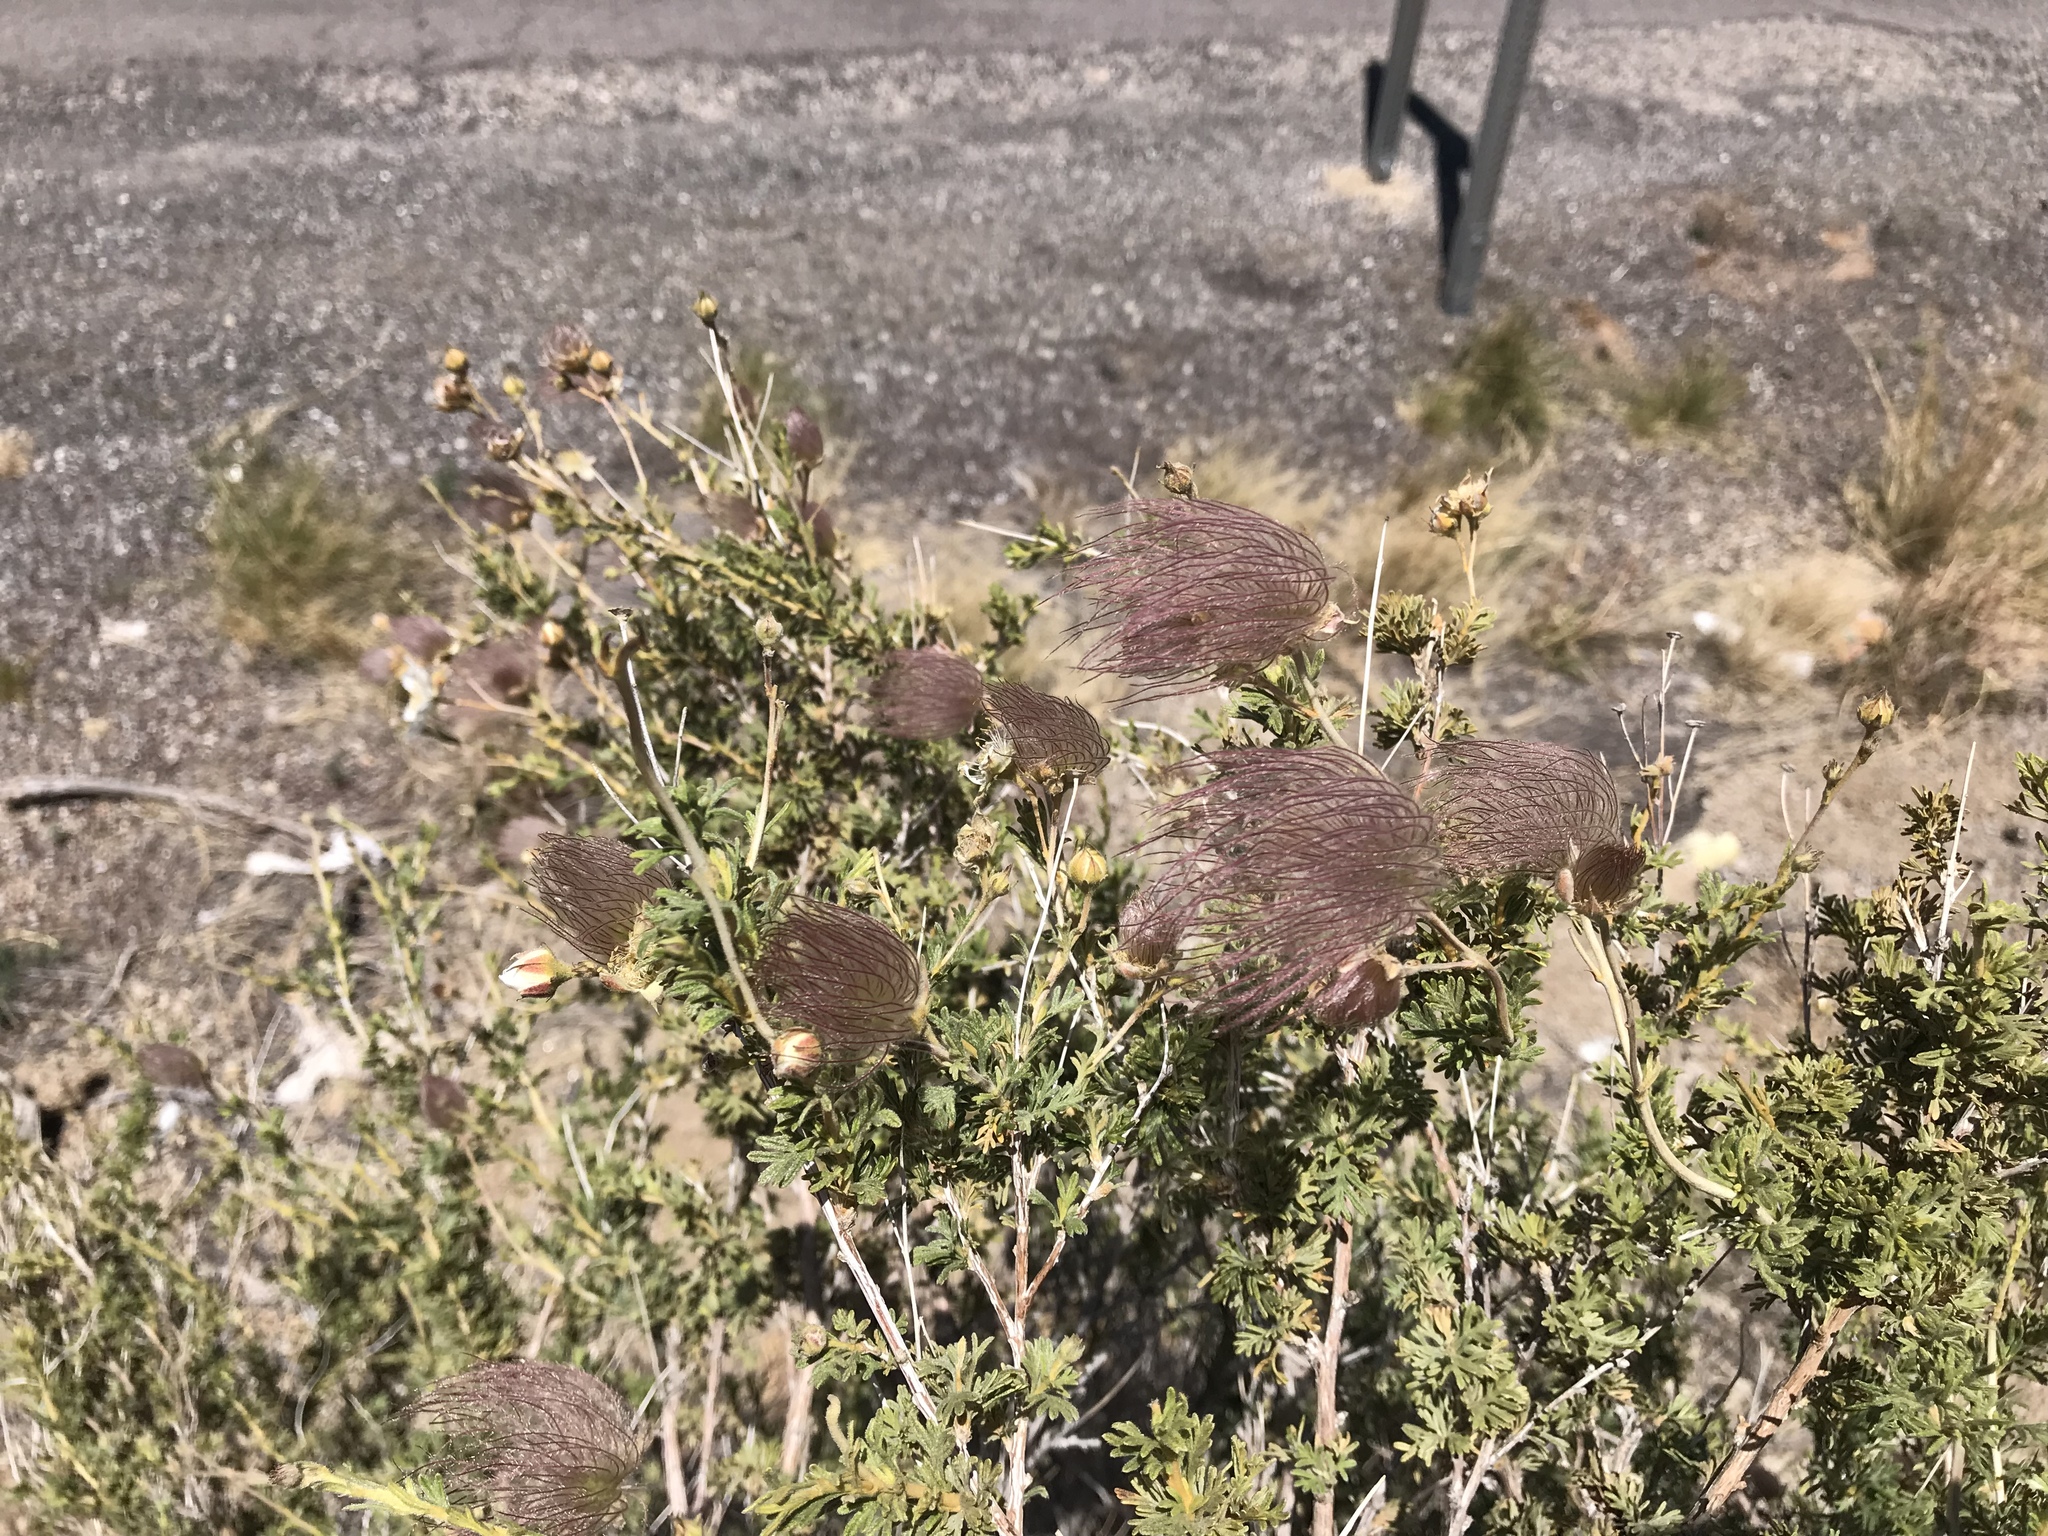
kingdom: Plantae
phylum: Tracheophyta
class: Magnoliopsida
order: Rosales
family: Rosaceae
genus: Fallugia
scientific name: Fallugia paradoxa
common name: Apache-plume
